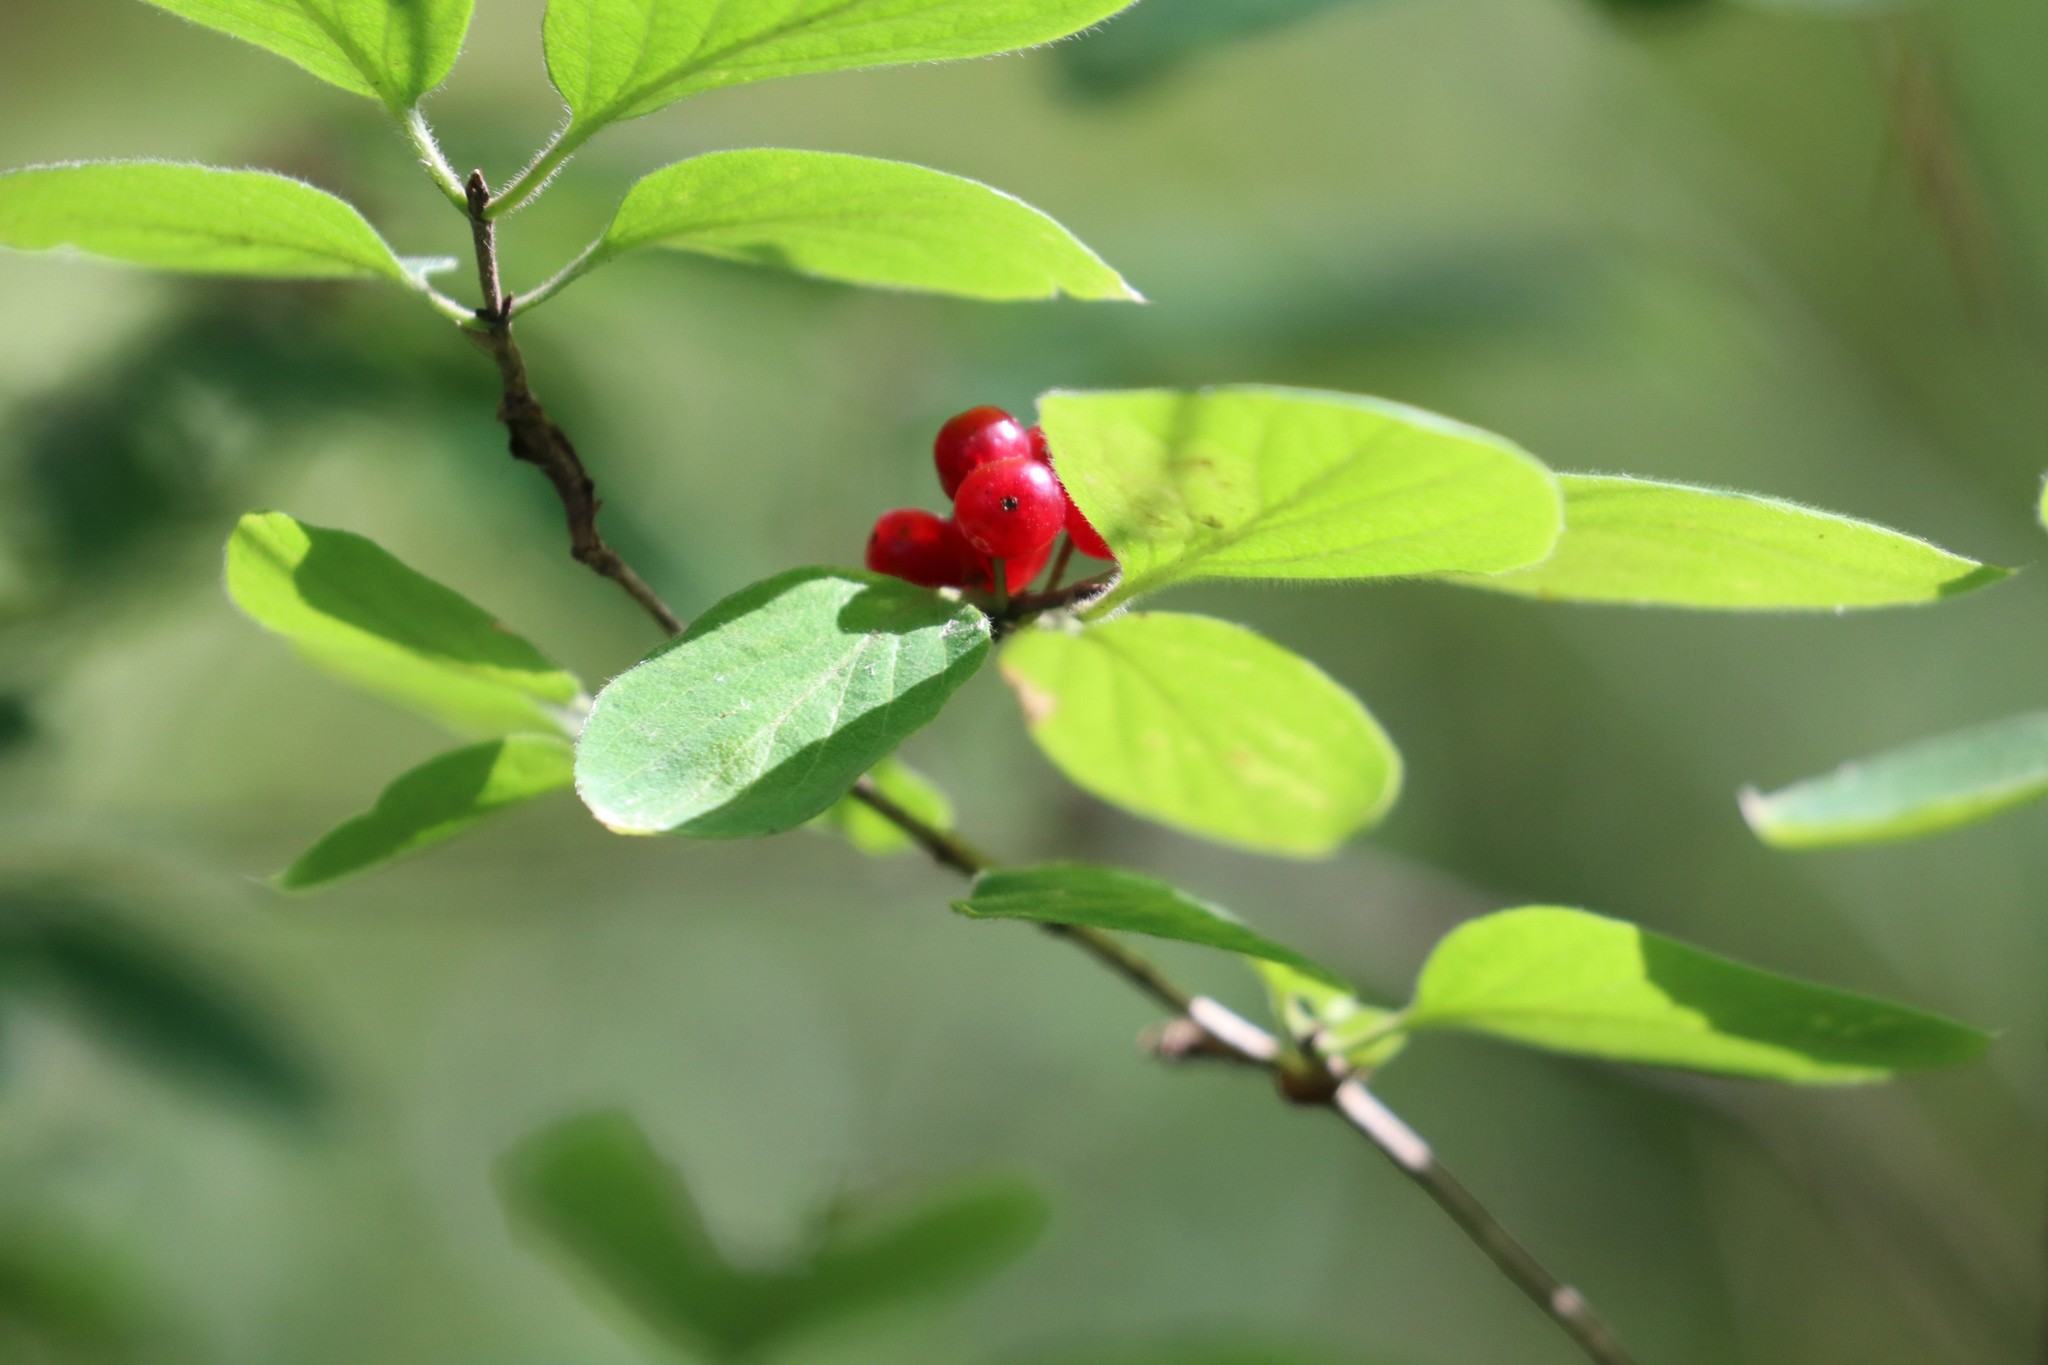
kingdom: Plantae
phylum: Tracheophyta
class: Magnoliopsida
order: Dipsacales
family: Caprifoliaceae
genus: Lonicera
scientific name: Lonicera xylosteum
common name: Fly honeysuckle
